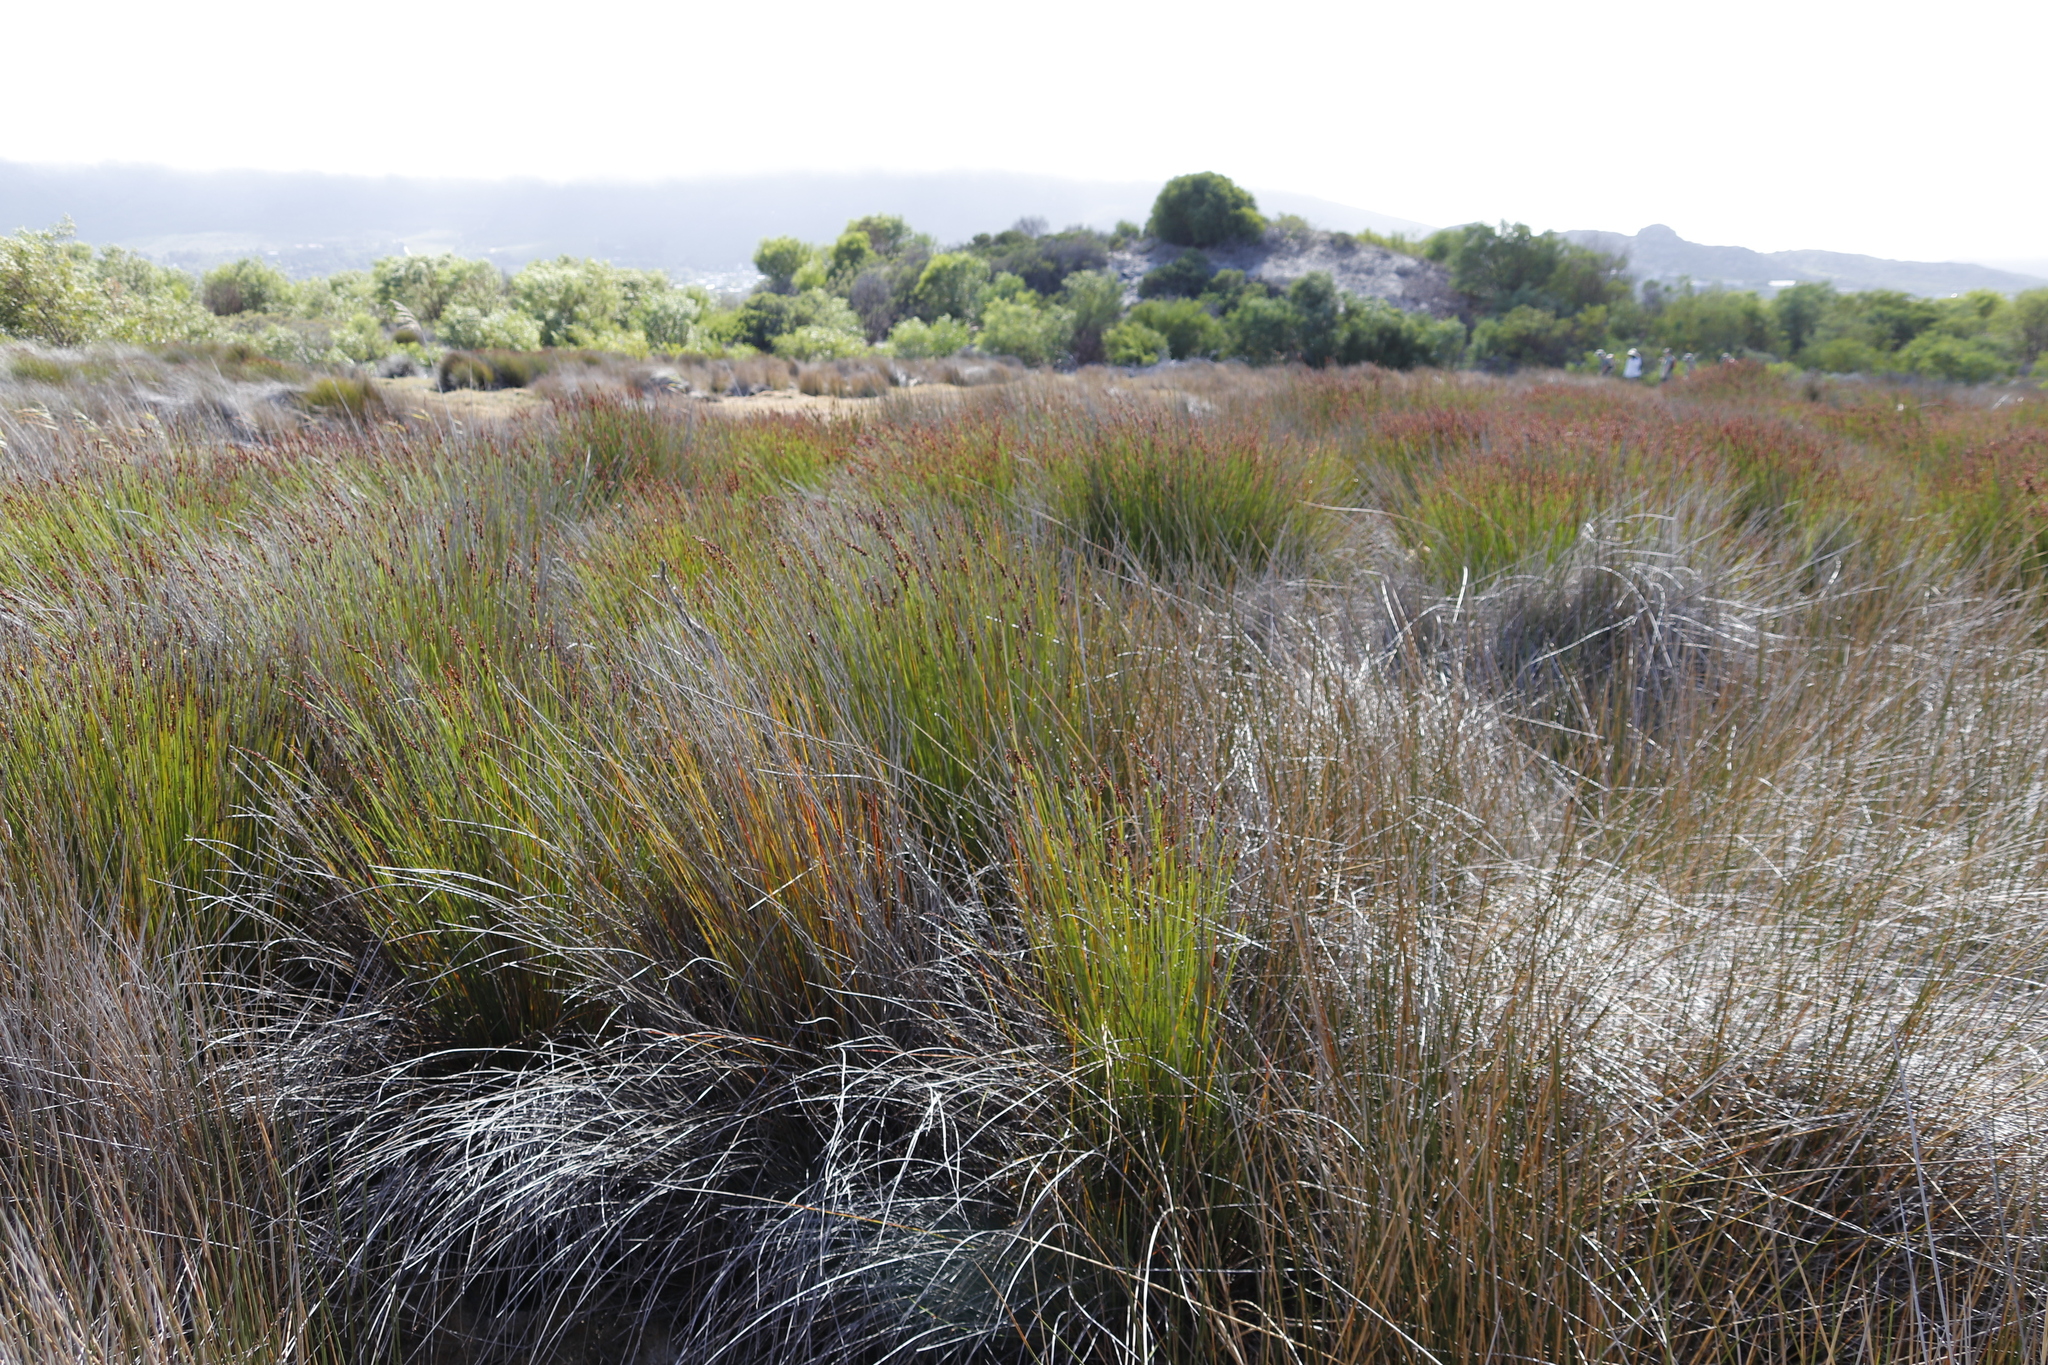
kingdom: Plantae
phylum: Tracheophyta
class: Liliopsida
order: Poales
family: Restionaceae
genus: Elegia
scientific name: Elegia tectorum
